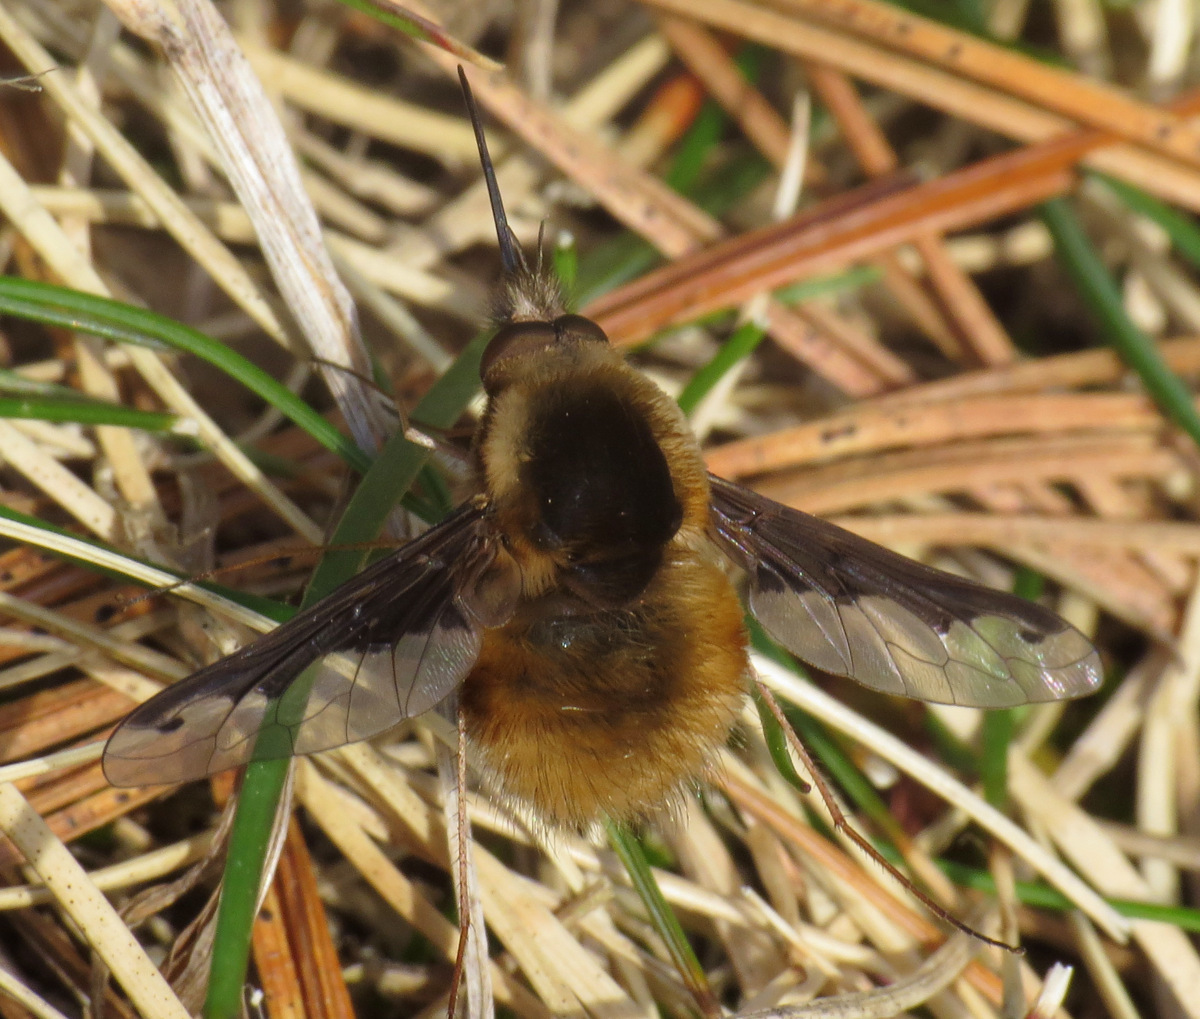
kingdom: Animalia
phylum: Arthropoda
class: Insecta
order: Diptera
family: Bombyliidae
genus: Bombylius
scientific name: Bombylius major
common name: Bee fly
